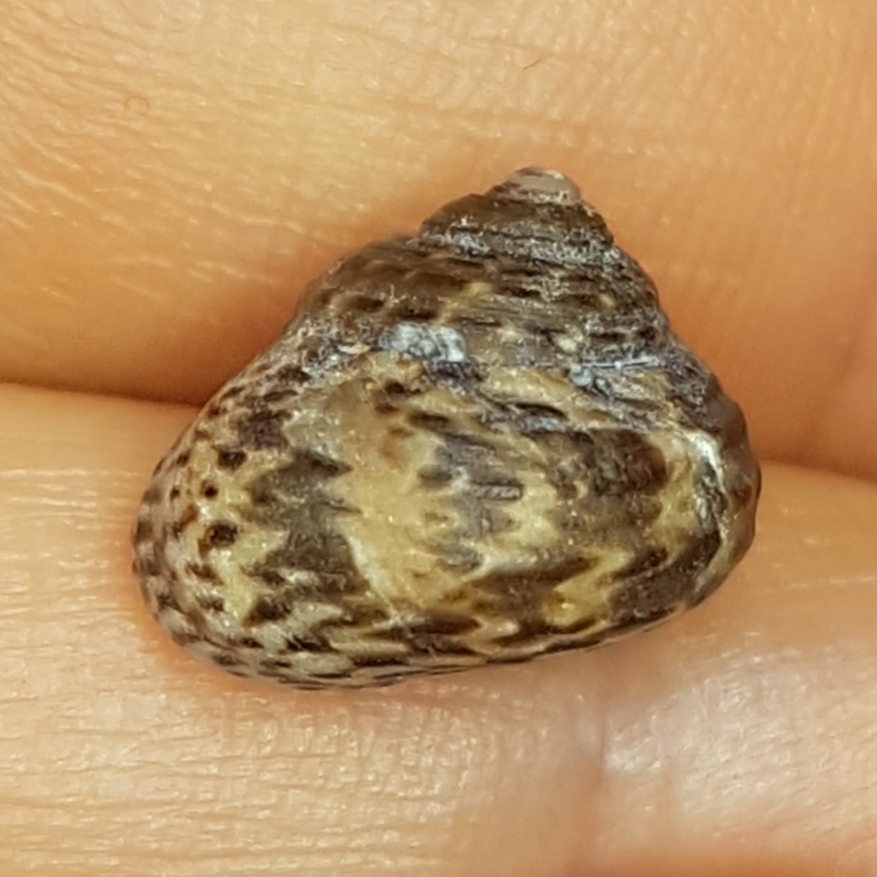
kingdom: Animalia
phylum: Mollusca
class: Gastropoda
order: Trochida
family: Trochidae
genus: Clanculus
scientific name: Clanculus jussieui
